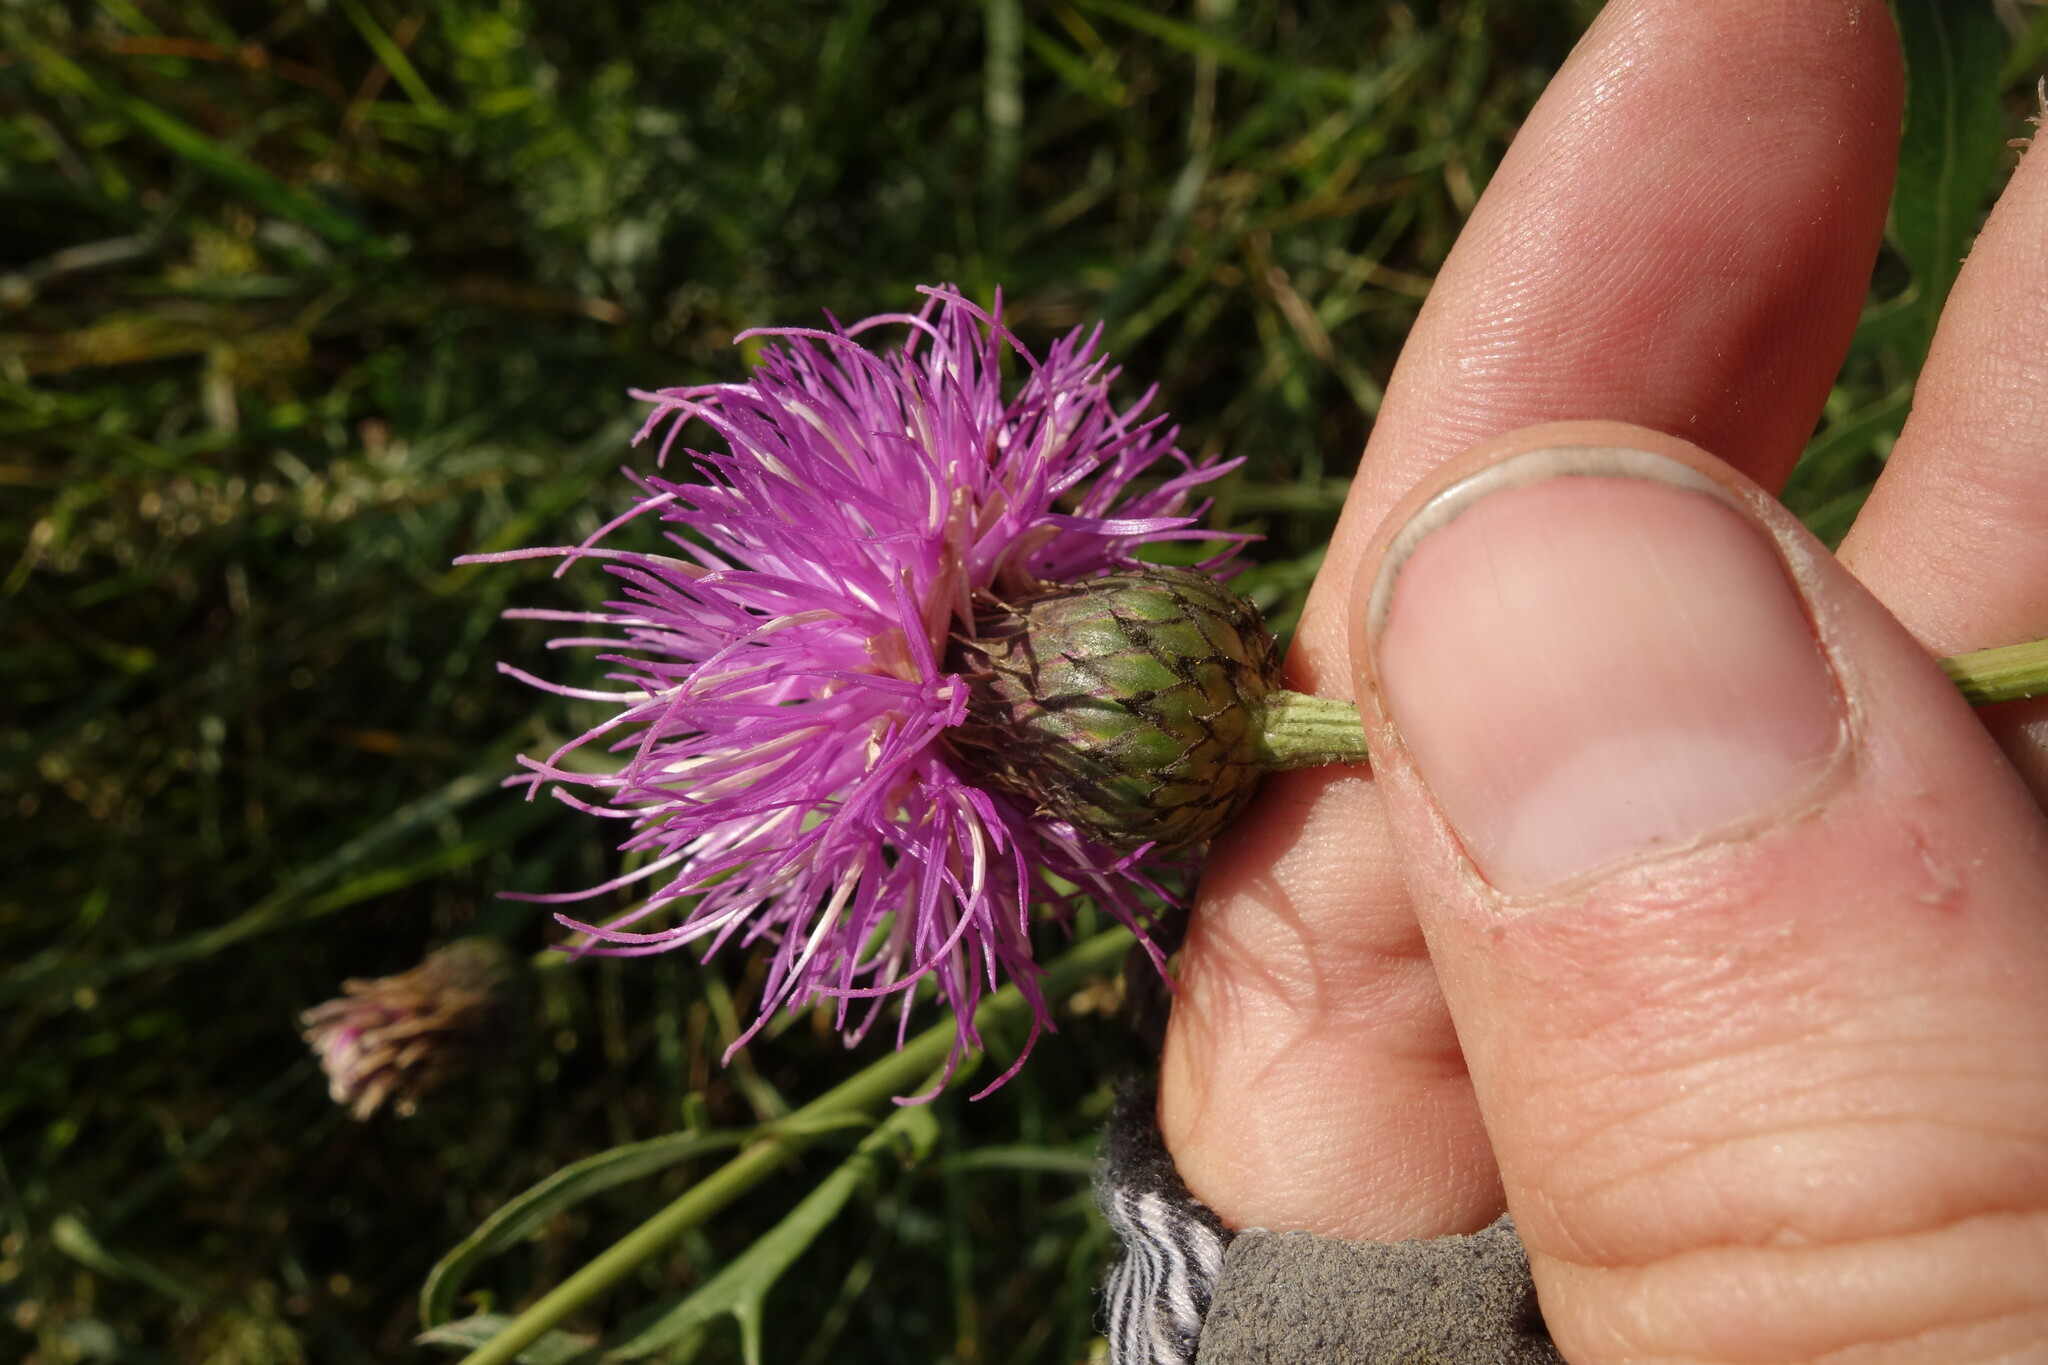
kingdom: Plantae
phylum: Tracheophyta
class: Magnoliopsida
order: Asterales
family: Asteraceae
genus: Klasea
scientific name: Klasea centauroides
